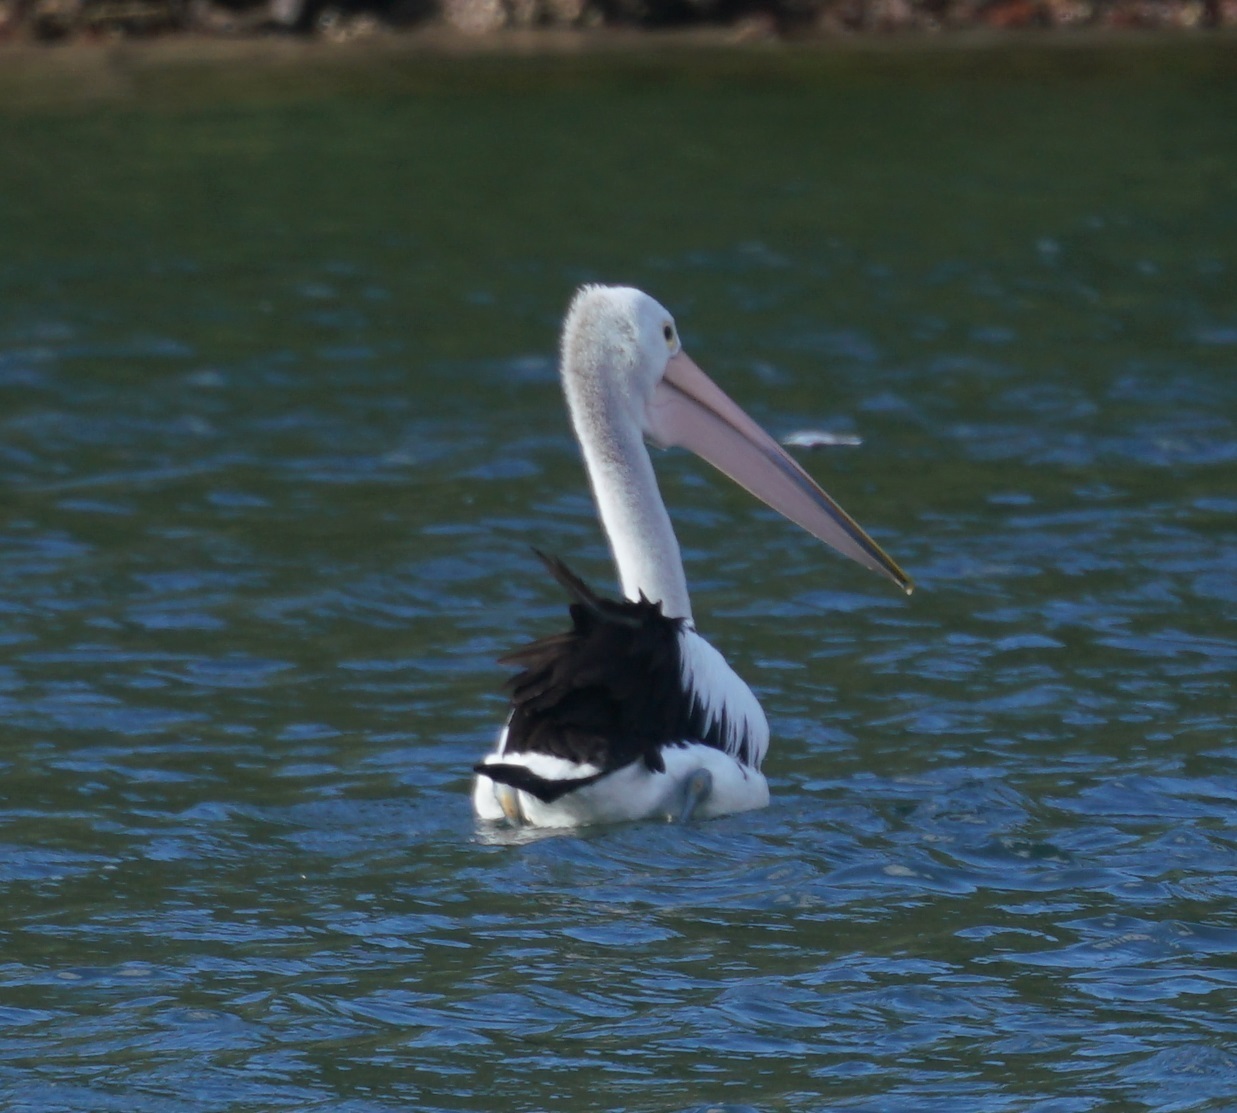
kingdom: Animalia
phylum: Chordata
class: Aves
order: Pelecaniformes
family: Pelecanidae
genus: Pelecanus
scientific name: Pelecanus conspicillatus
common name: Australian pelican
